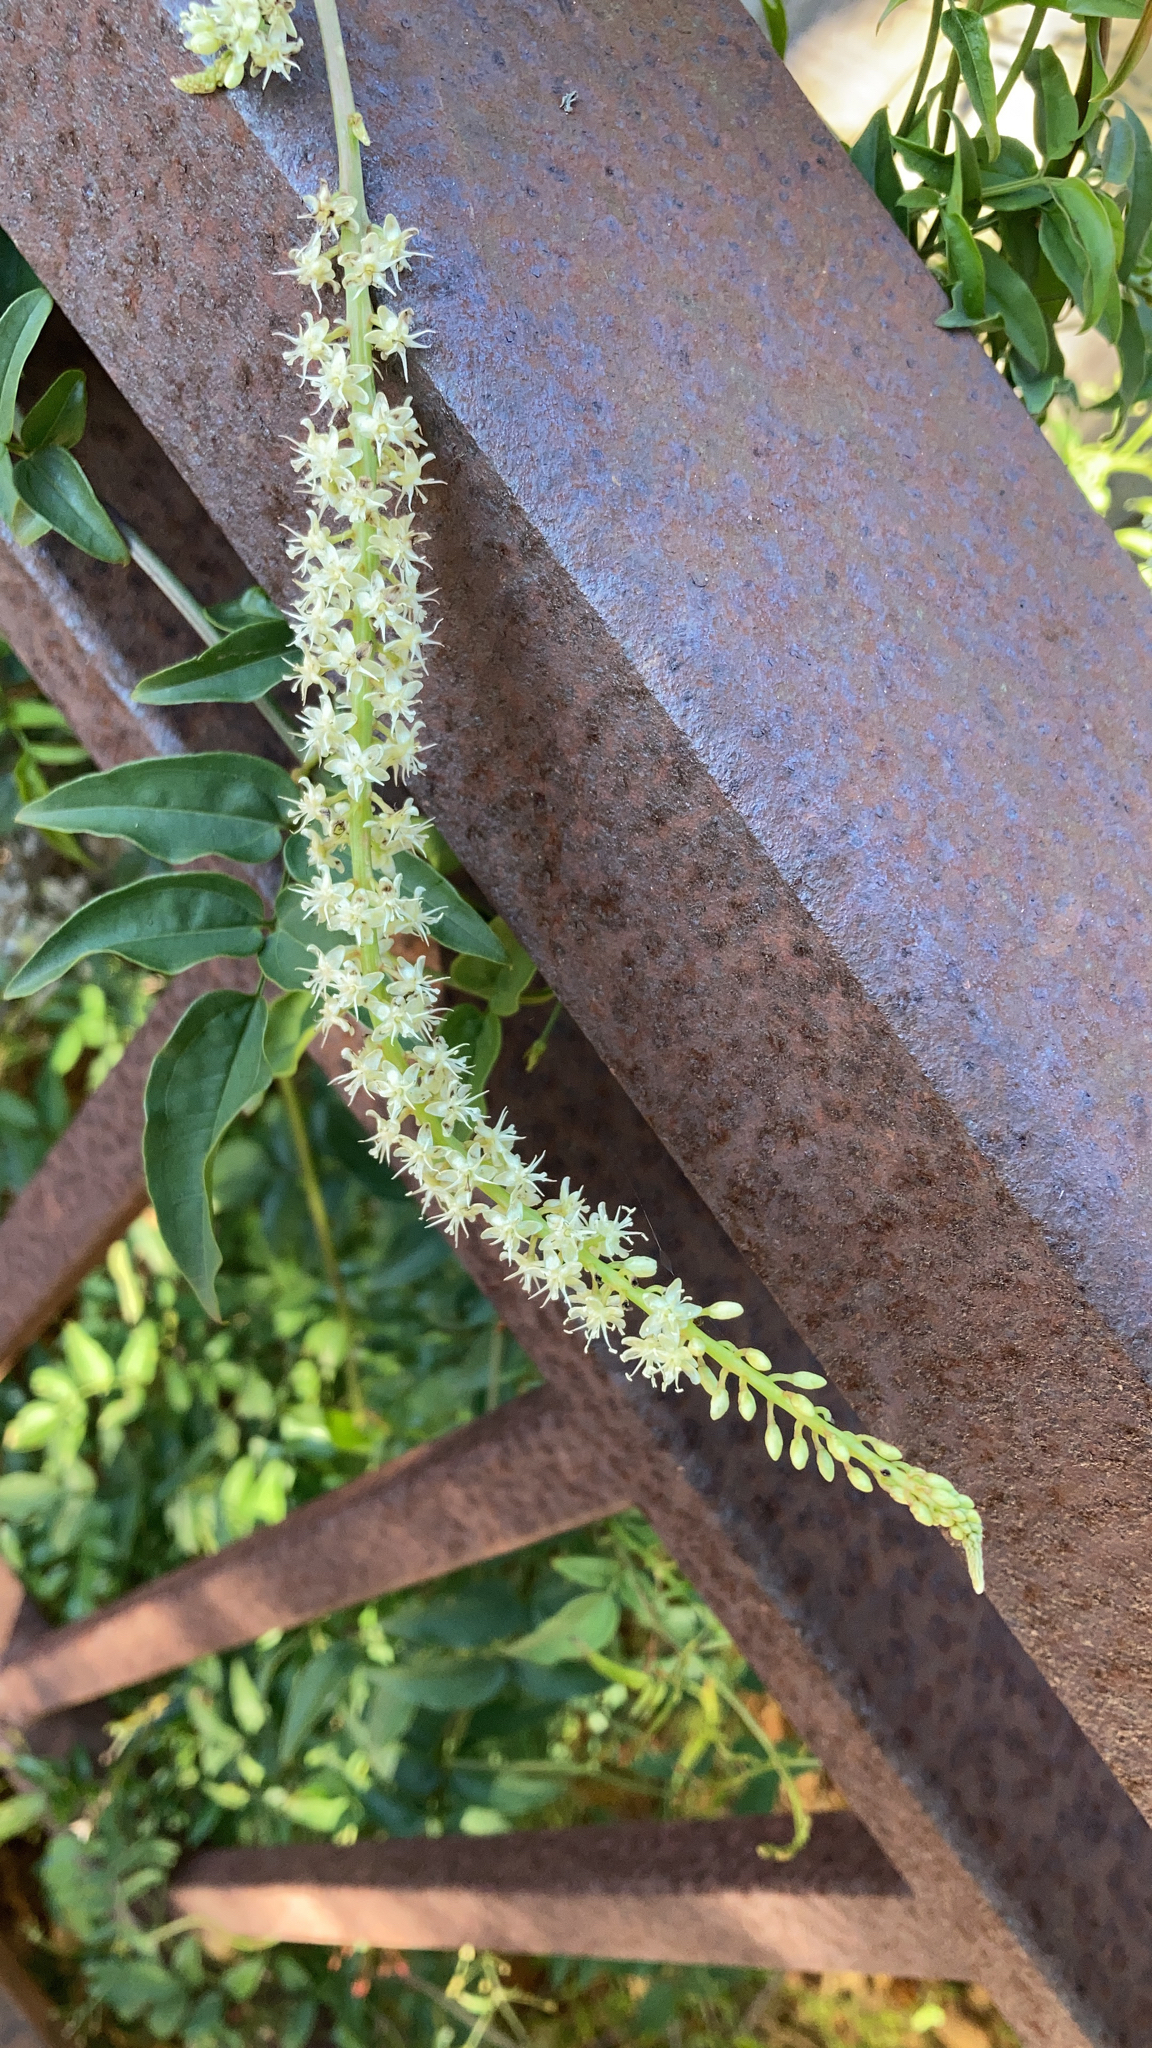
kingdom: Plantae
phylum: Tracheophyta
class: Magnoliopsida
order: Caryophyllales
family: Basellaceae
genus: Anredera
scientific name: Anredera cordifolia
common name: Heartleaf madeiravine
